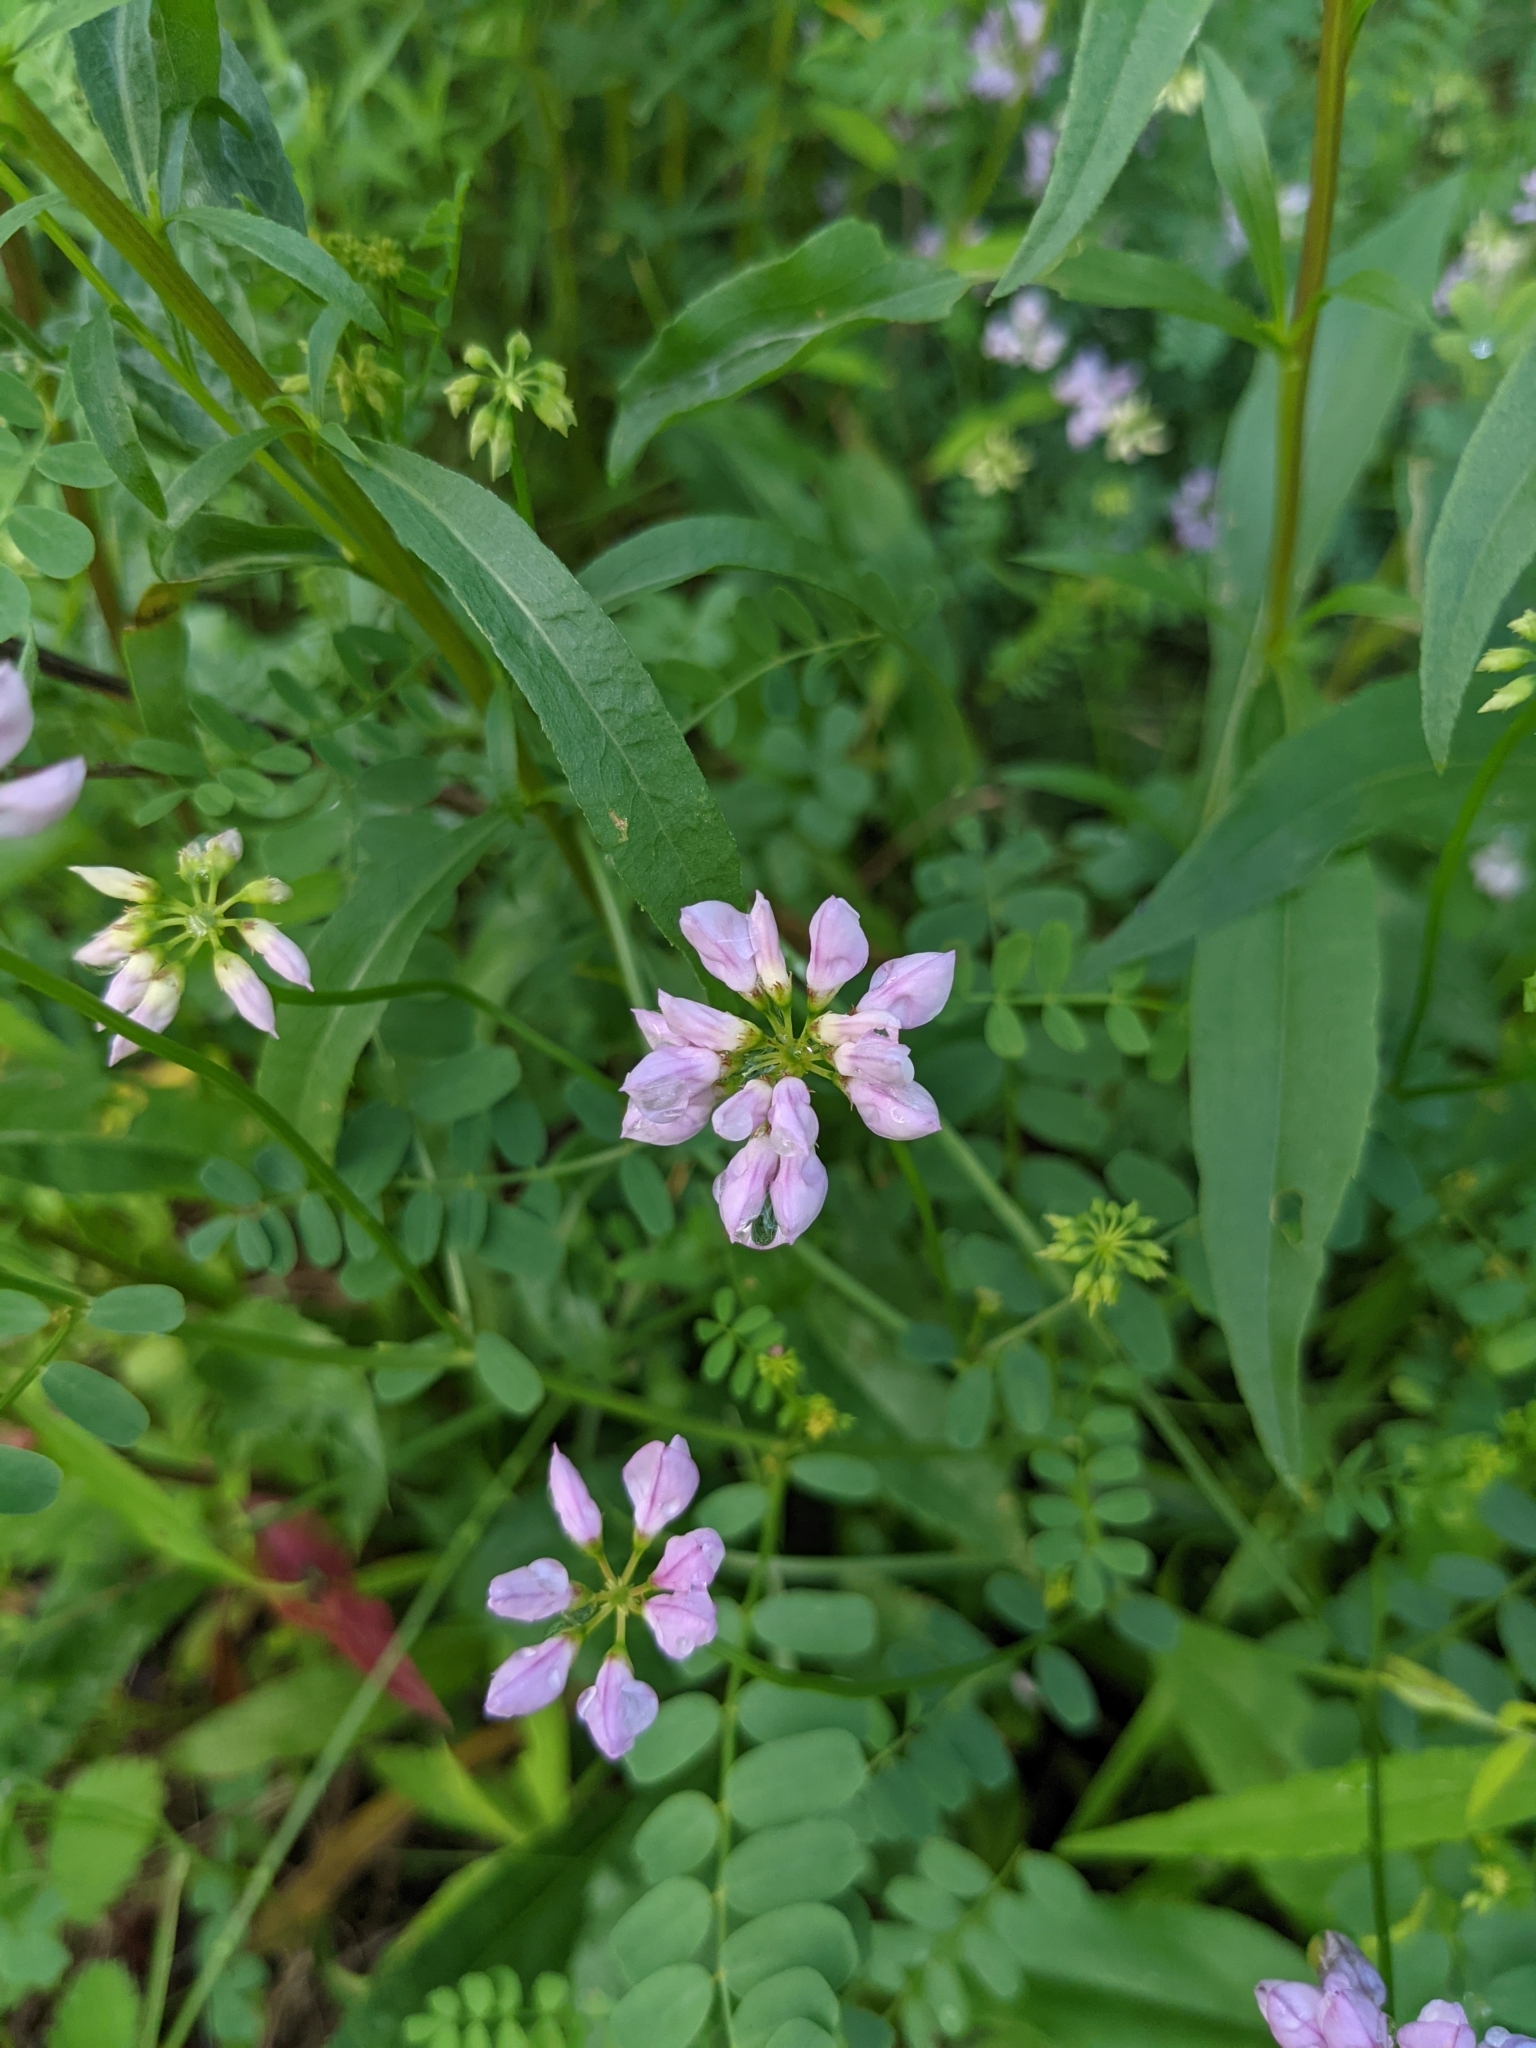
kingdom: Plantae
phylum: Tracheophyta
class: Magnoliopsida
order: Fabales
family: Fabaceae
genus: Coronilla
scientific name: Coronilla varia
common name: Crownvetch
